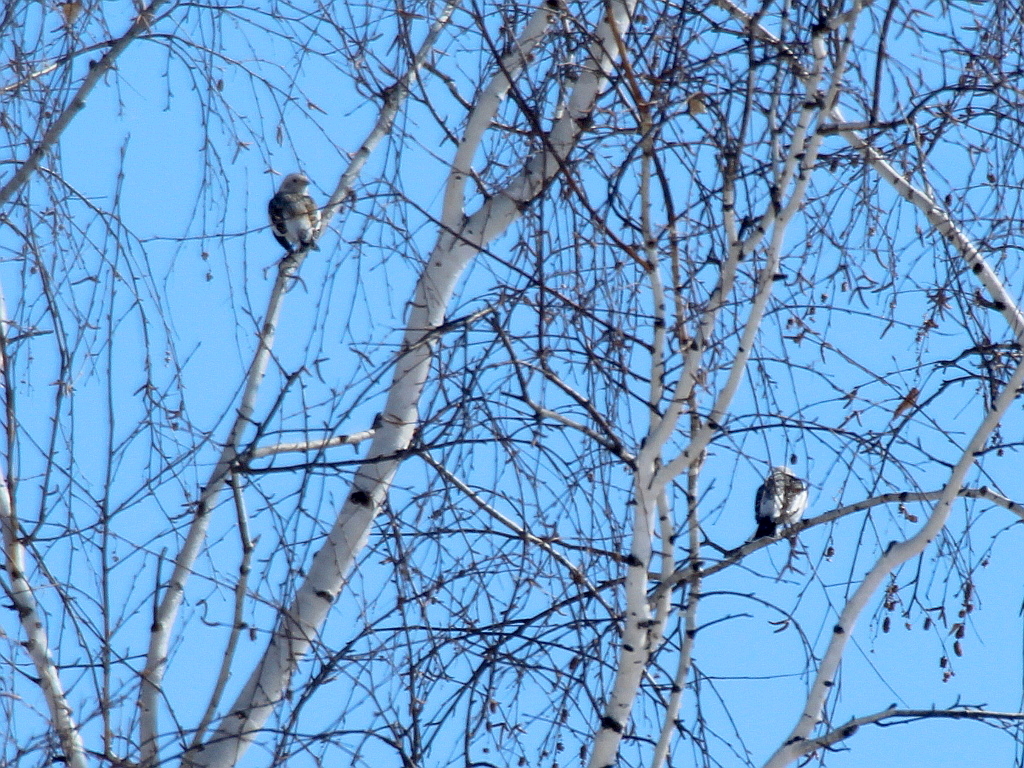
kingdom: Animalia
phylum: Chordata
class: Aves
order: Passeriformes
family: Calcariidae
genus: Plectrophenax
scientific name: Plectrophenax nivalis
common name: Snow bunting
